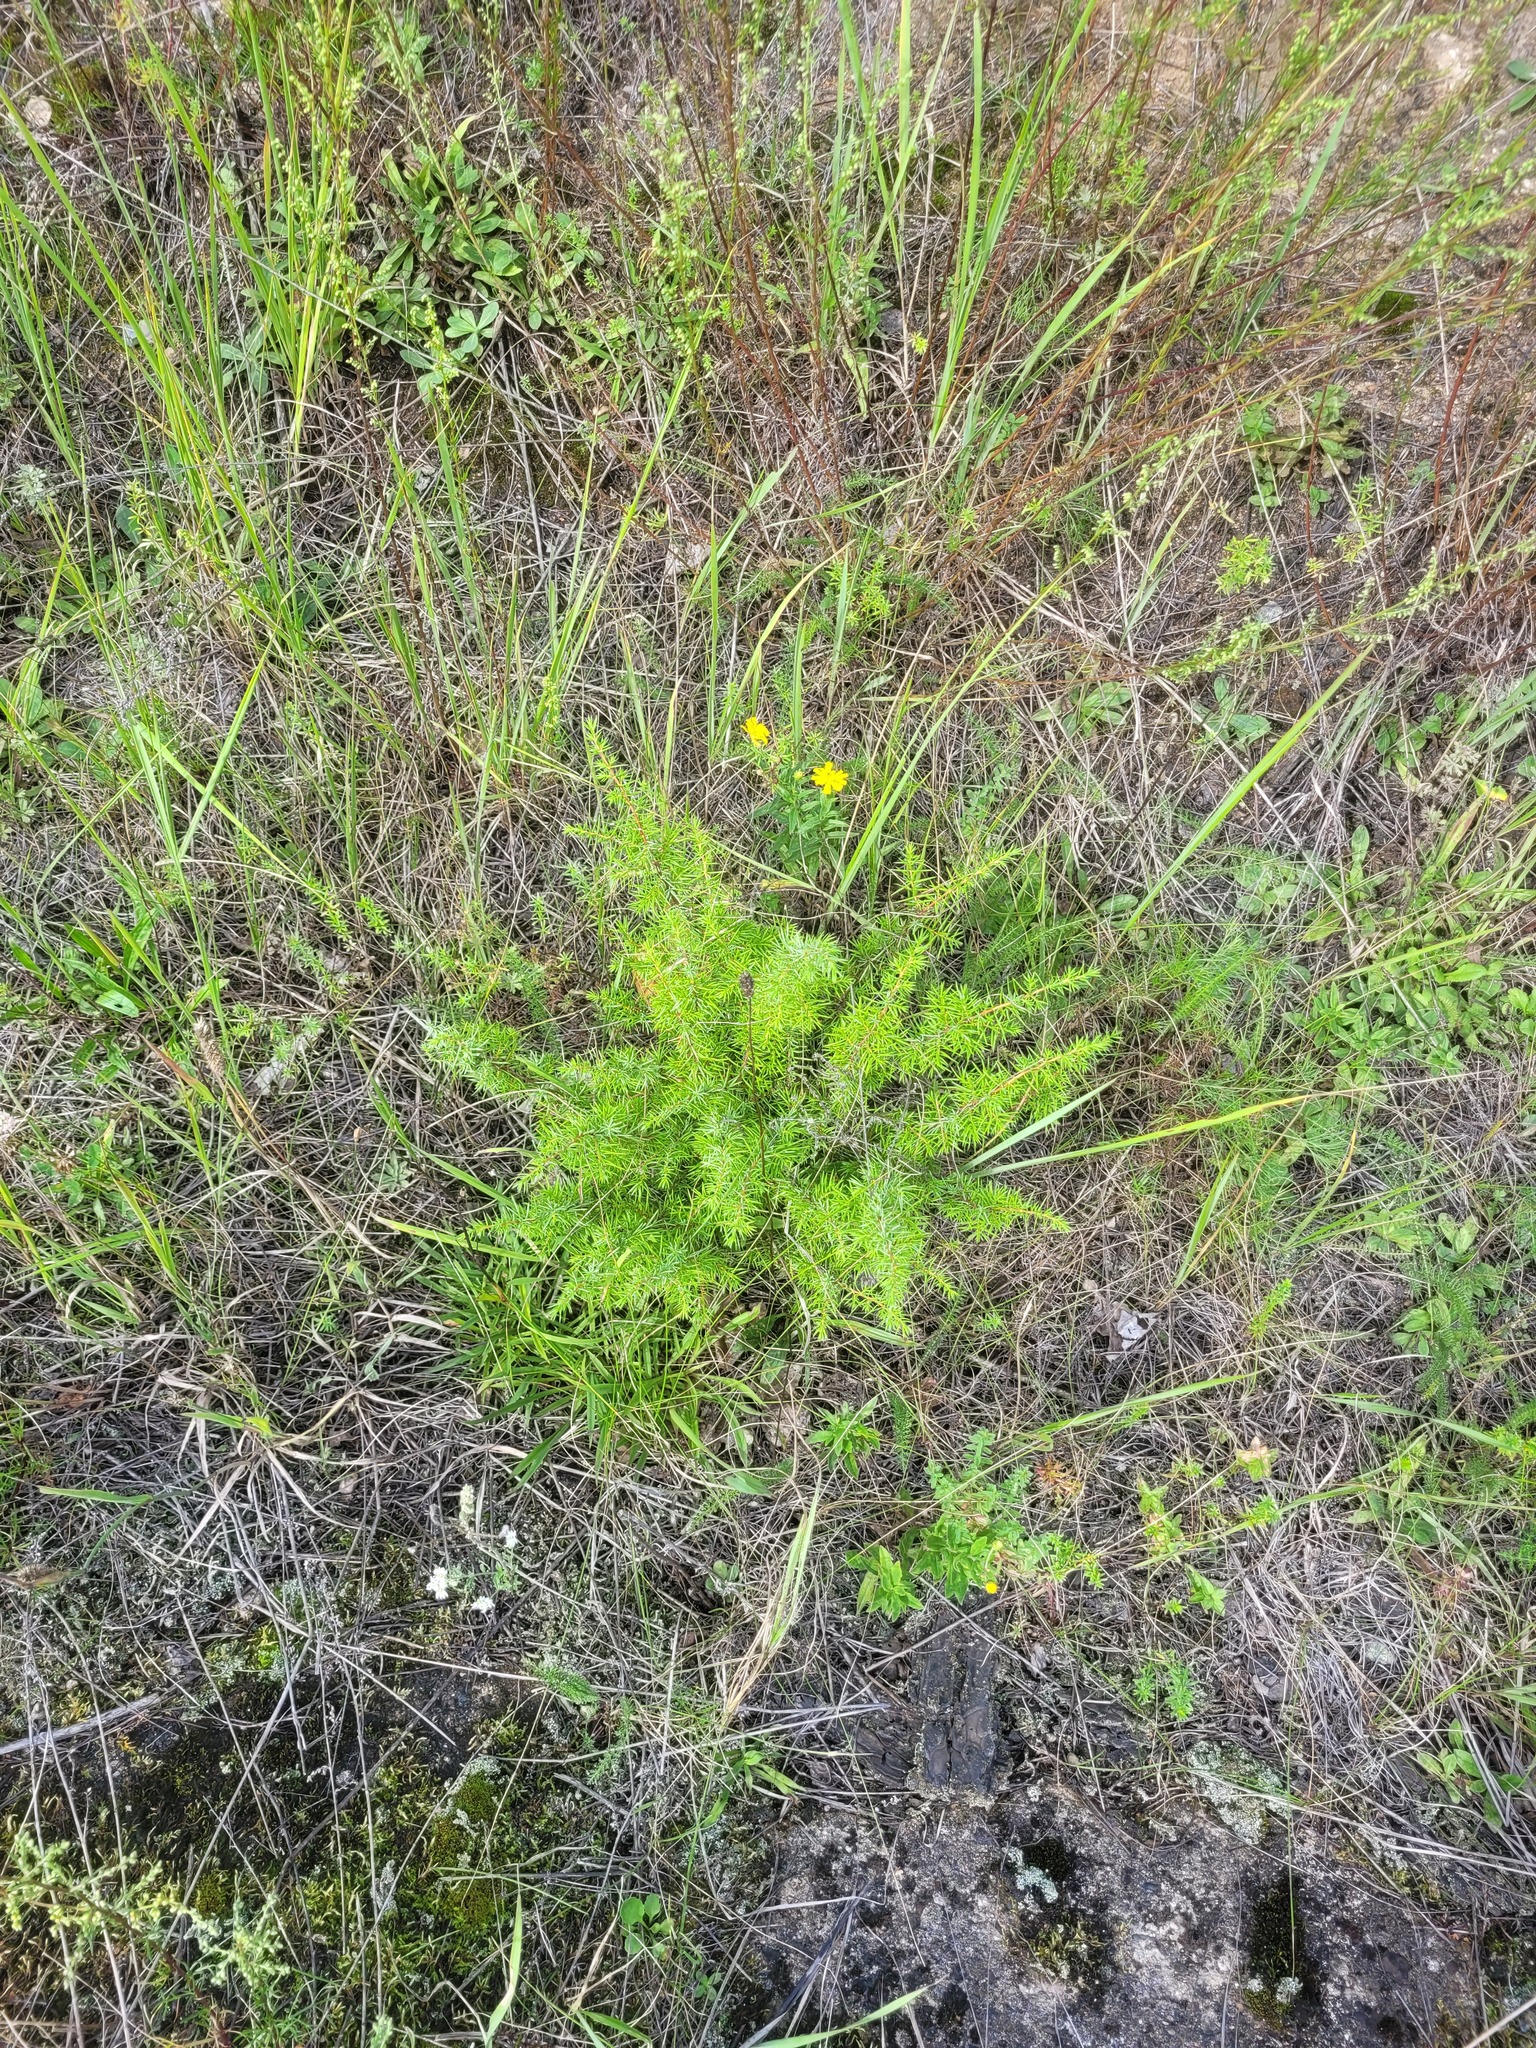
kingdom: Plantae
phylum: Tracheophyta
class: Pinopsida
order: Pinales
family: Cupressaceae
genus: Juniperus
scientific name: Juniperus communis
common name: Common juniper
